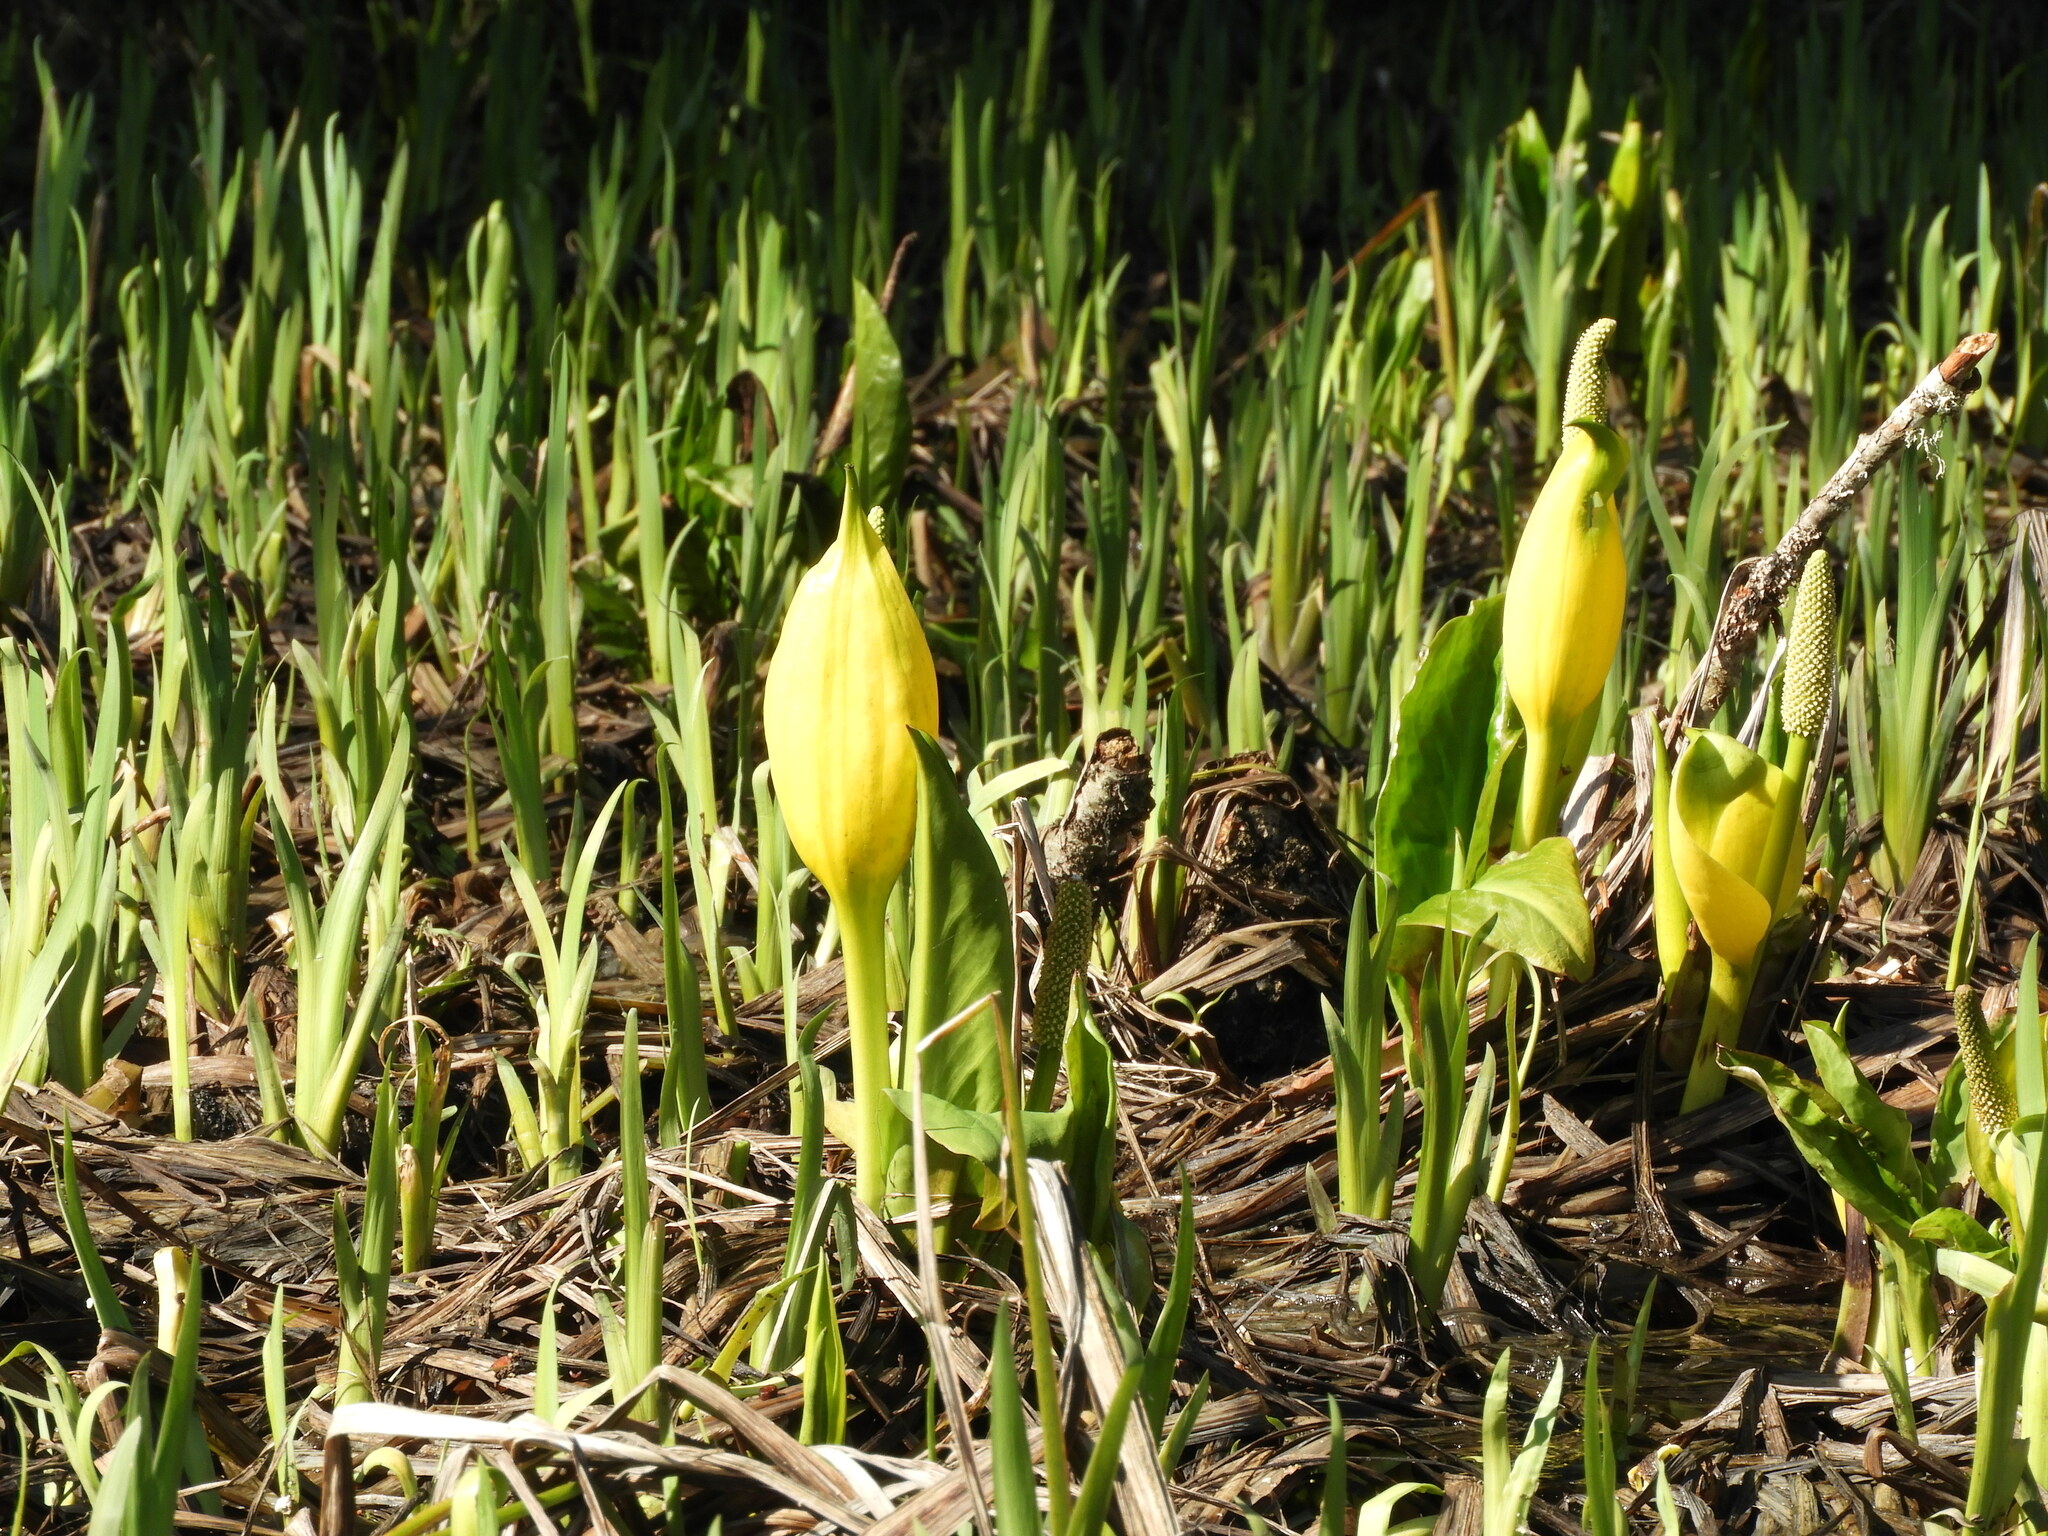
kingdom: Plantae
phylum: Tracheophyta
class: Liliopsida
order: Alismatales
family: Araceae
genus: Lysichiton
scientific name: Lysichiton americanus
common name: American skunk cabbage
